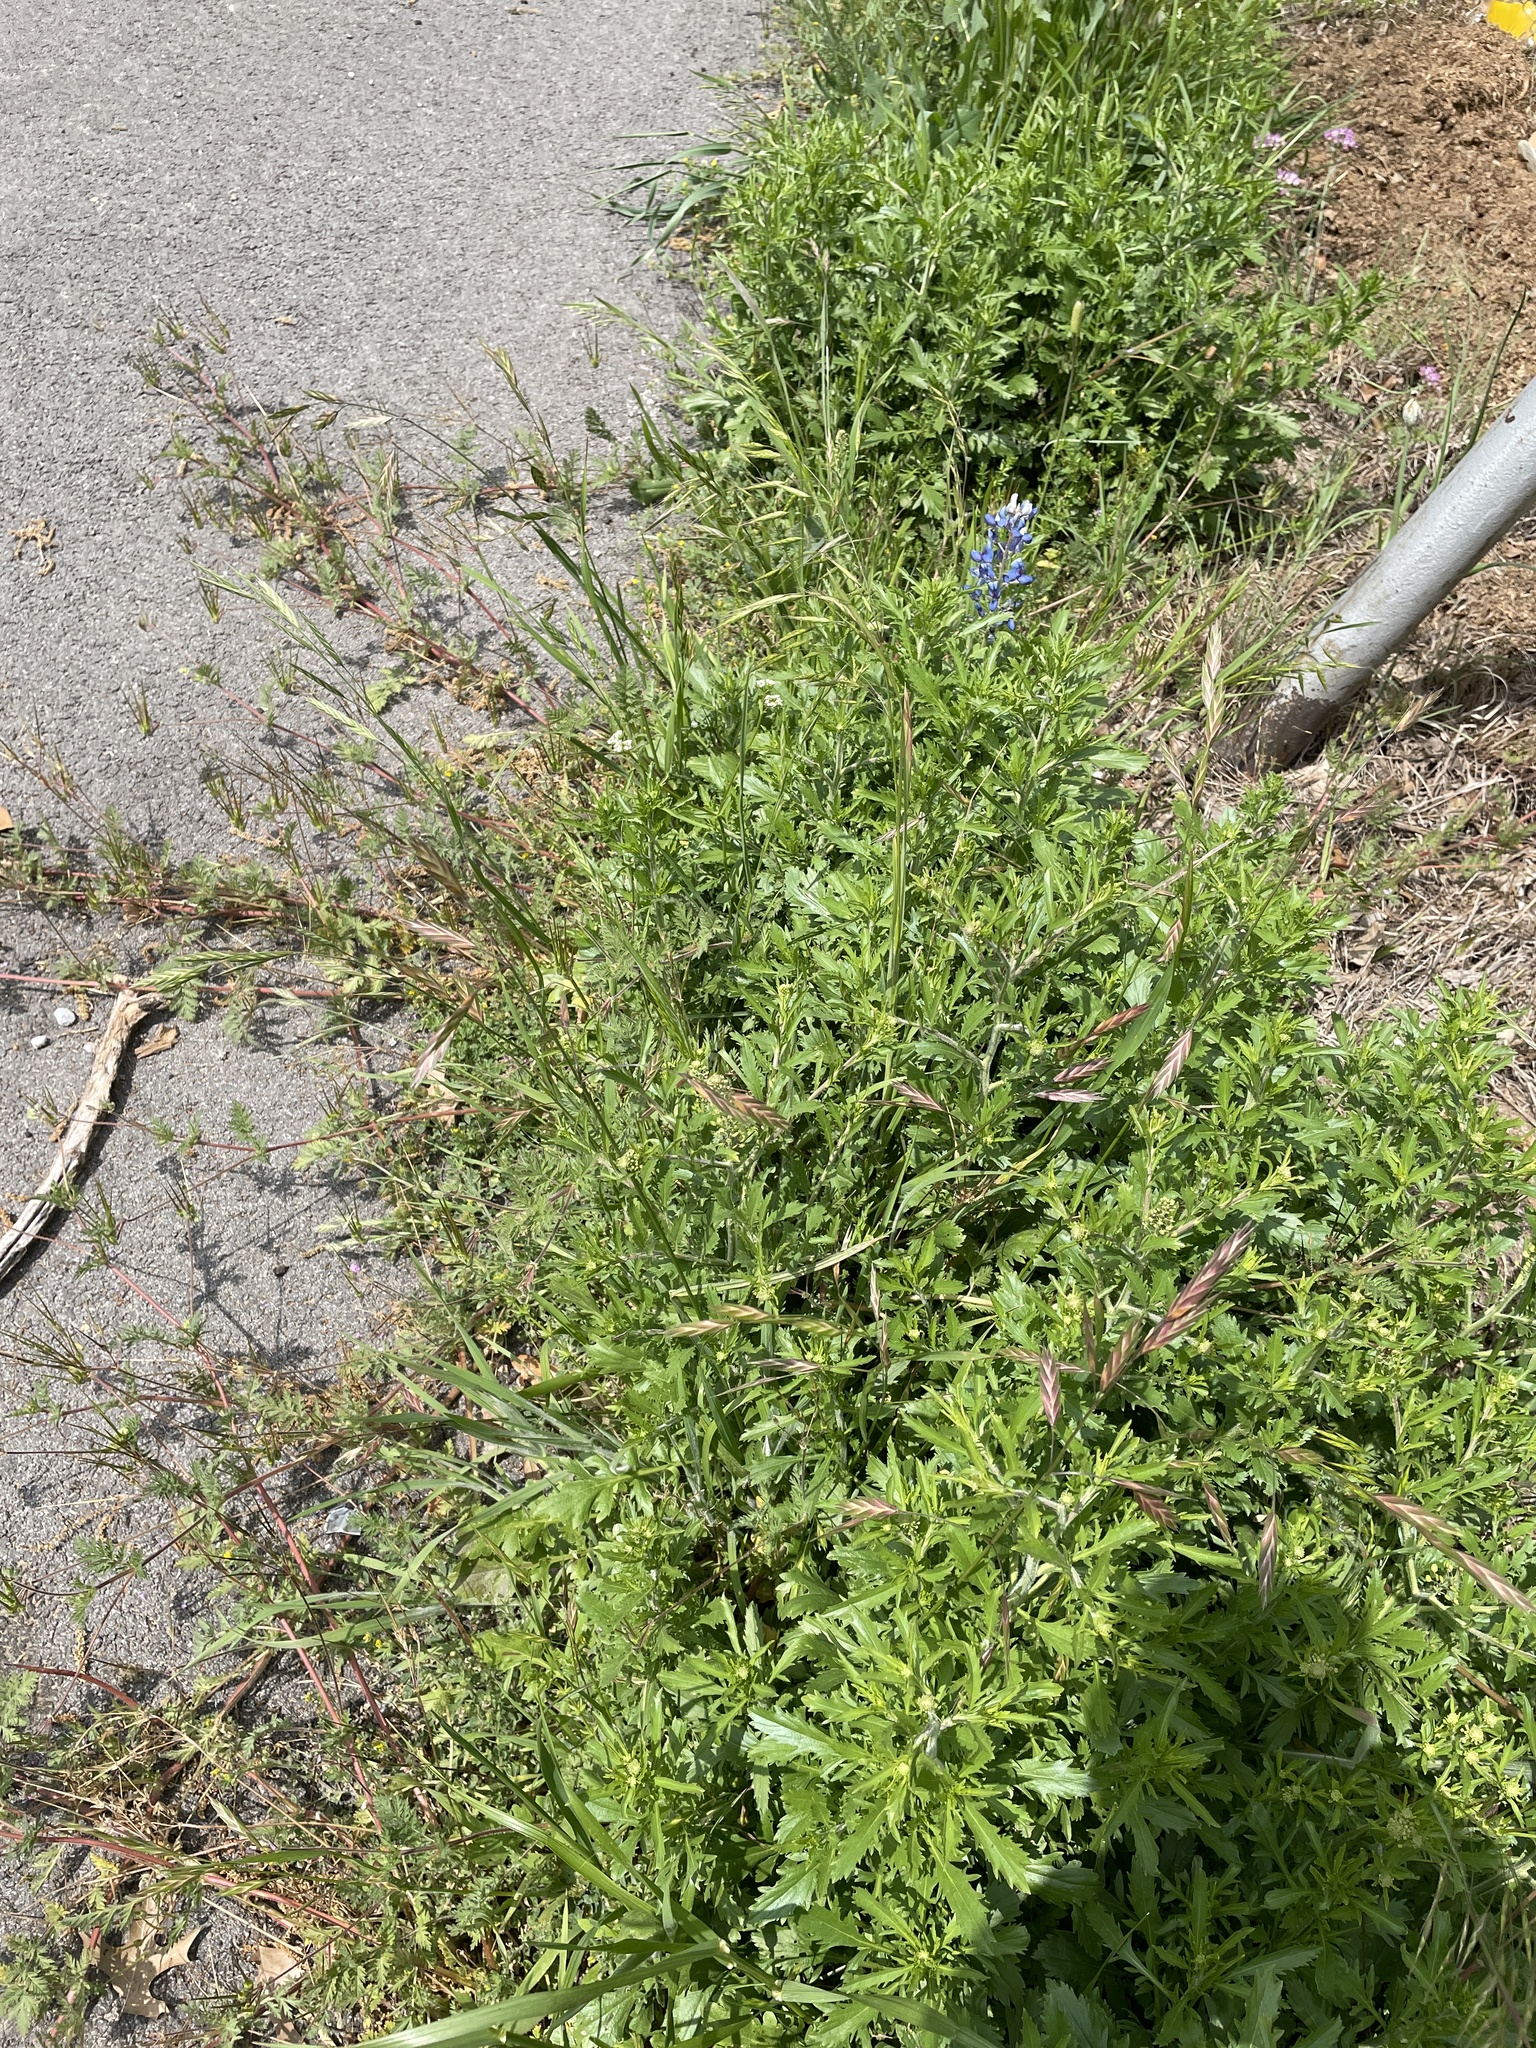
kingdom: Plantae
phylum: Tracheophyta
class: Liliopsida
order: Poales
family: Poaceae
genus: Bromus
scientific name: Bromus catharticus
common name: Rescuegrass
